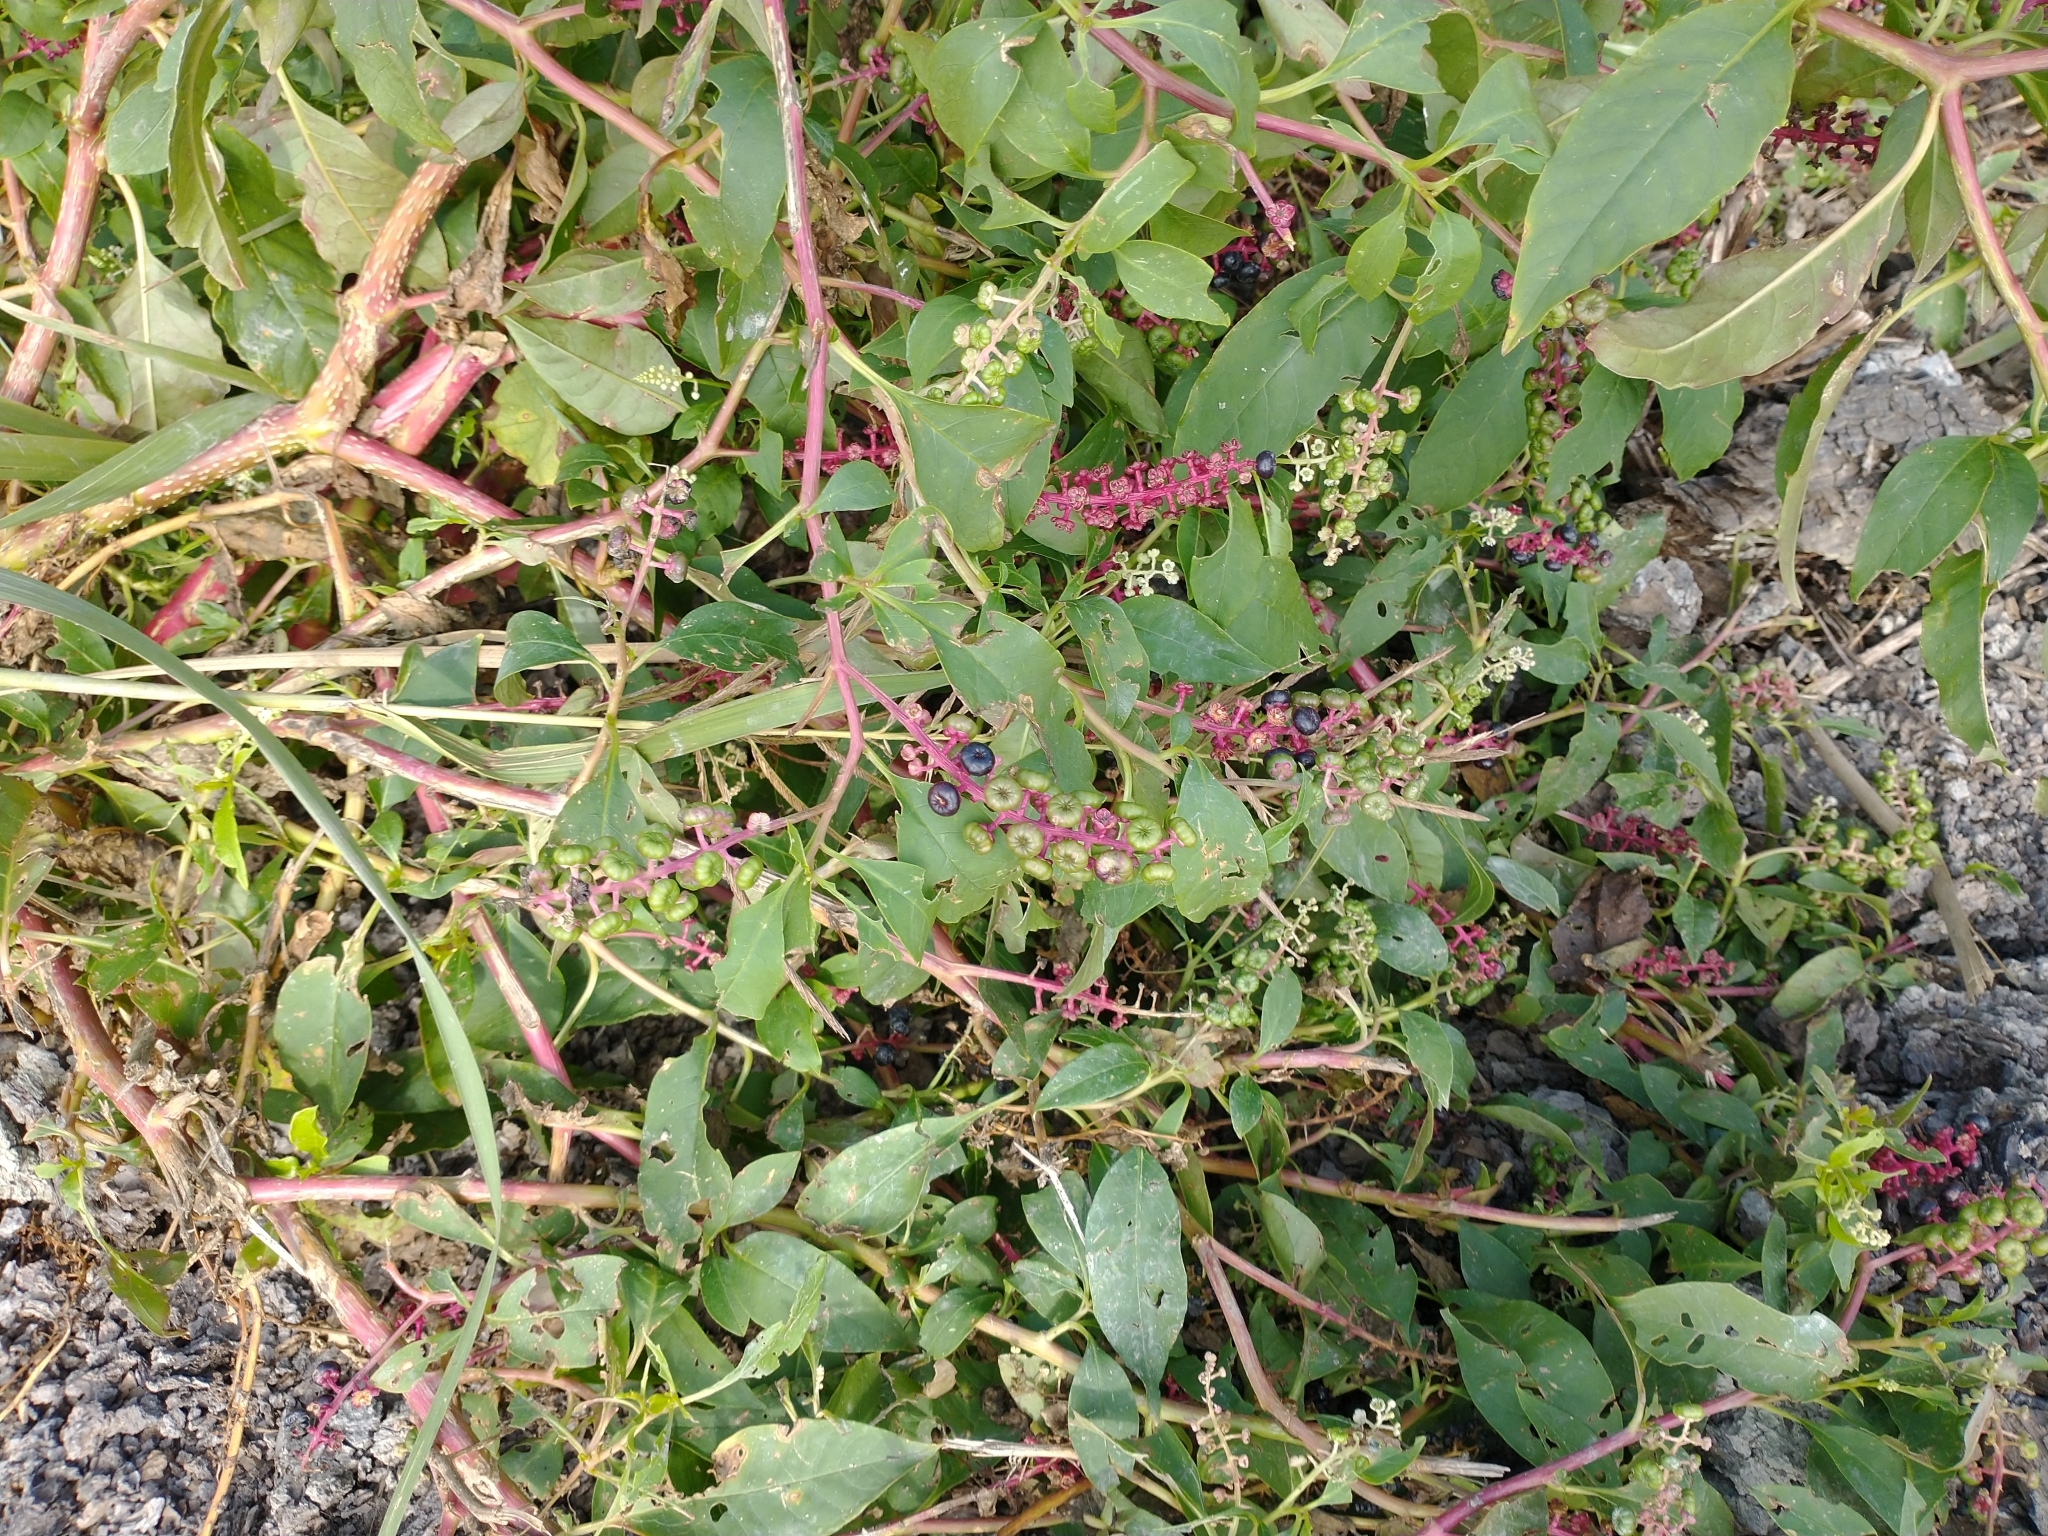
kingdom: Plantae
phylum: Tracheophyta
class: Magnoliopsida
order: Caryophyllales
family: Phytolaccaceae
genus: Phytolacca
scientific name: Phytolacca americana
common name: American pokeweed
